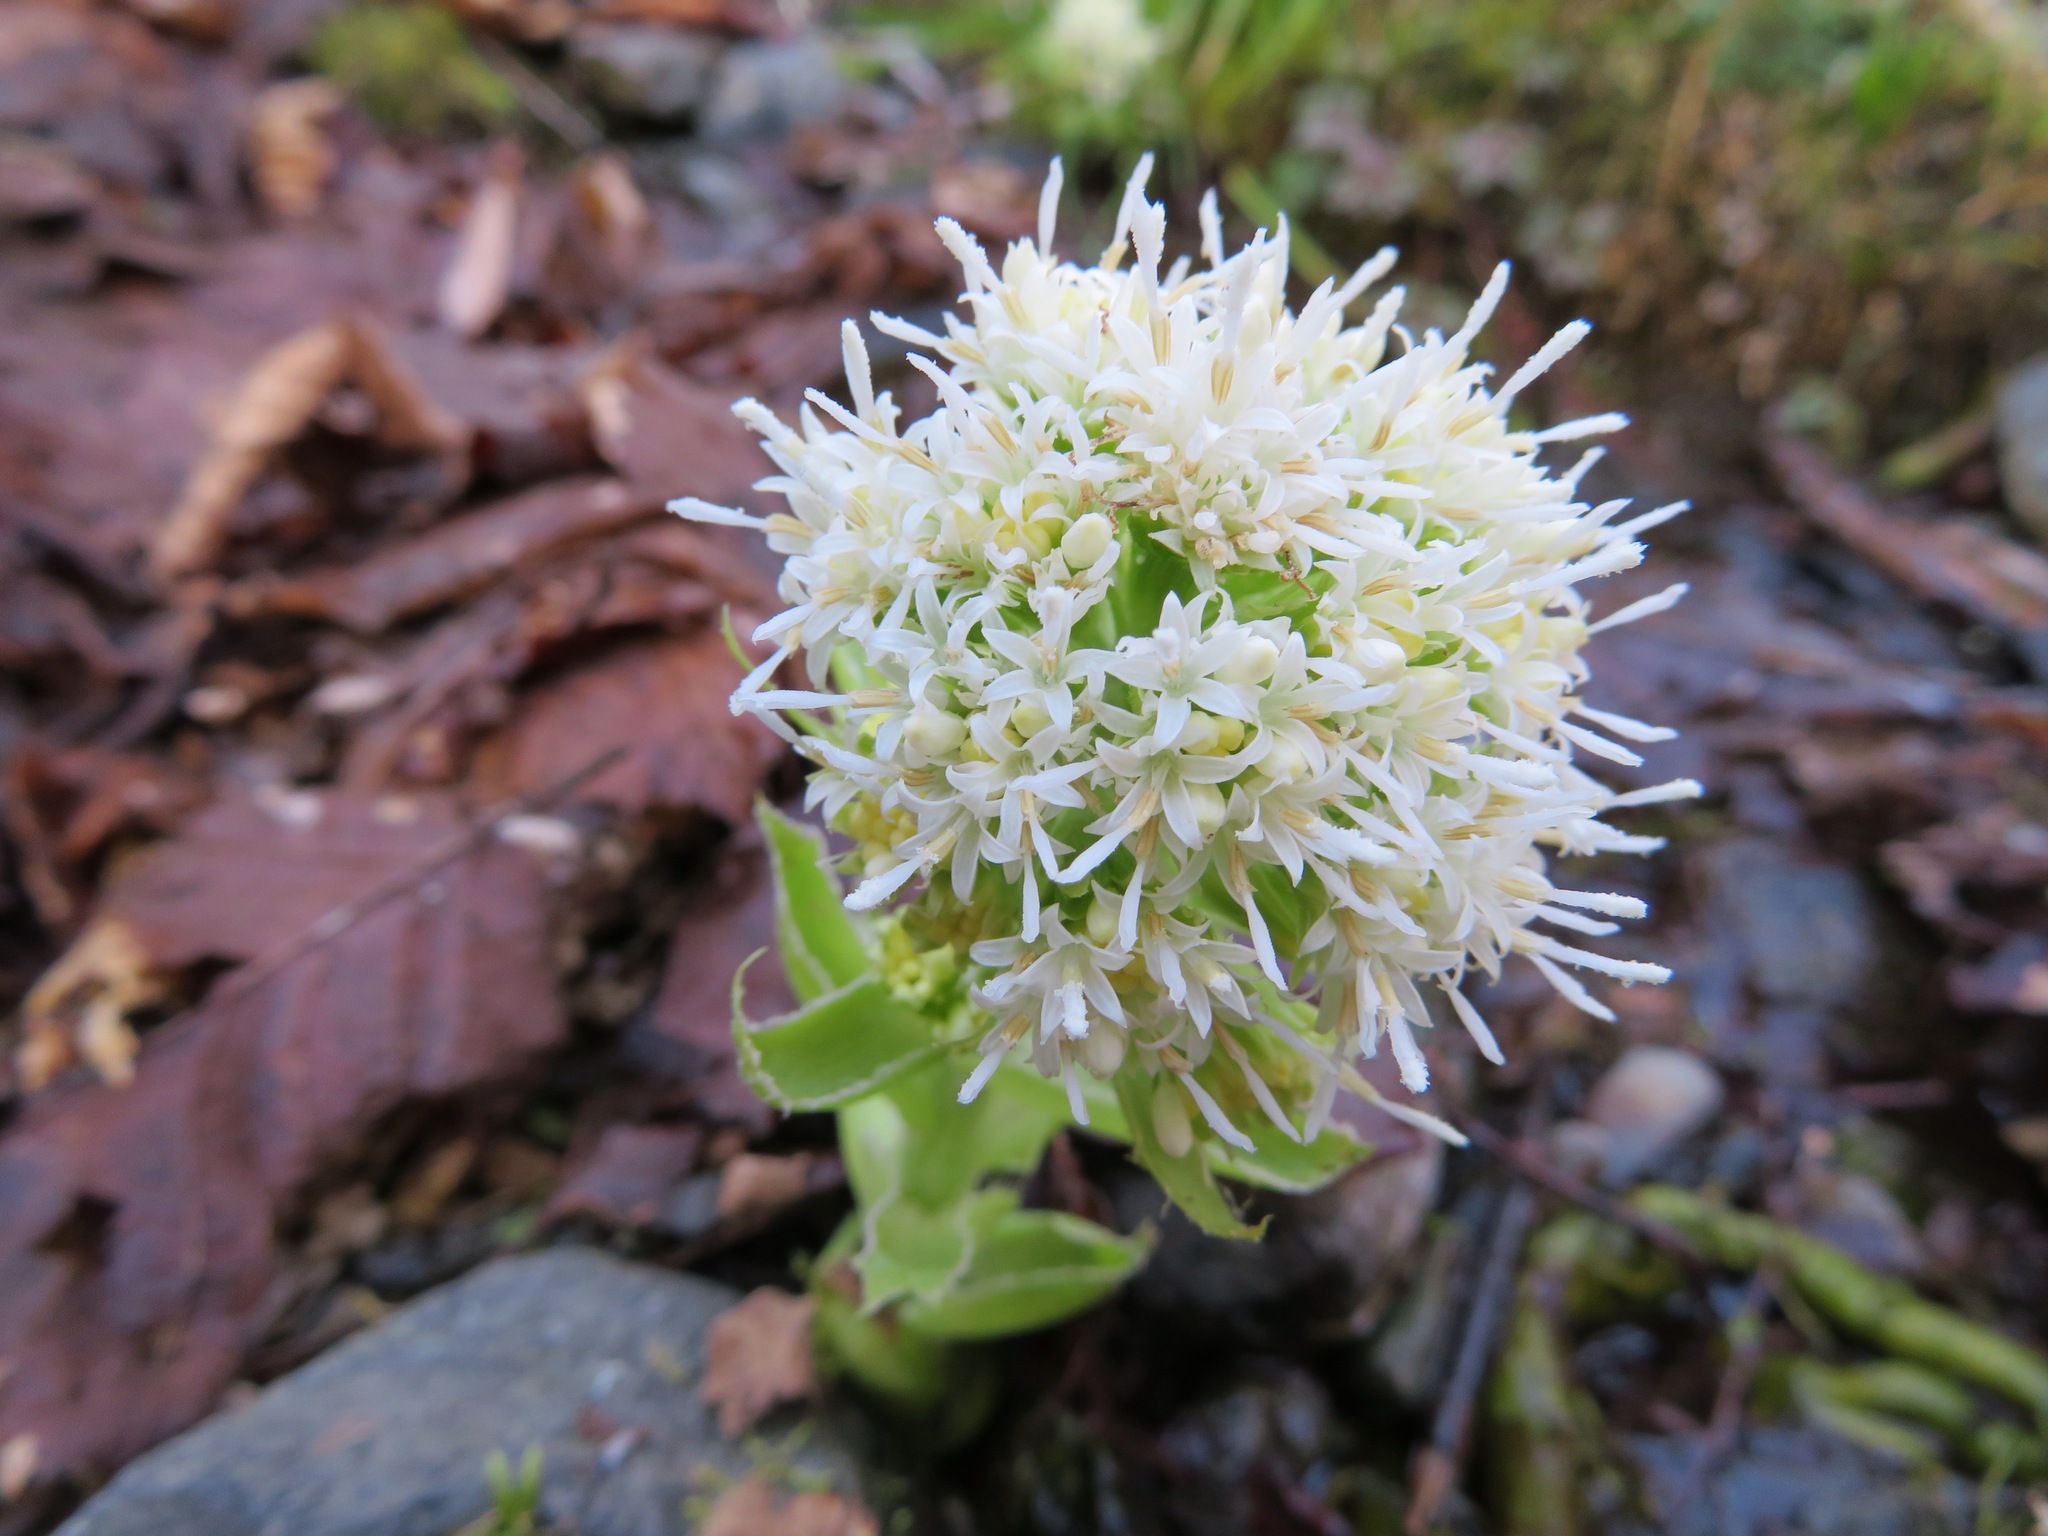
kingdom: Plantae
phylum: Tracheophyta
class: Magnoliopsida
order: Asterales
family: Asteraceae
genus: Petasites
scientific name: Petasites albus
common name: White butterbur
